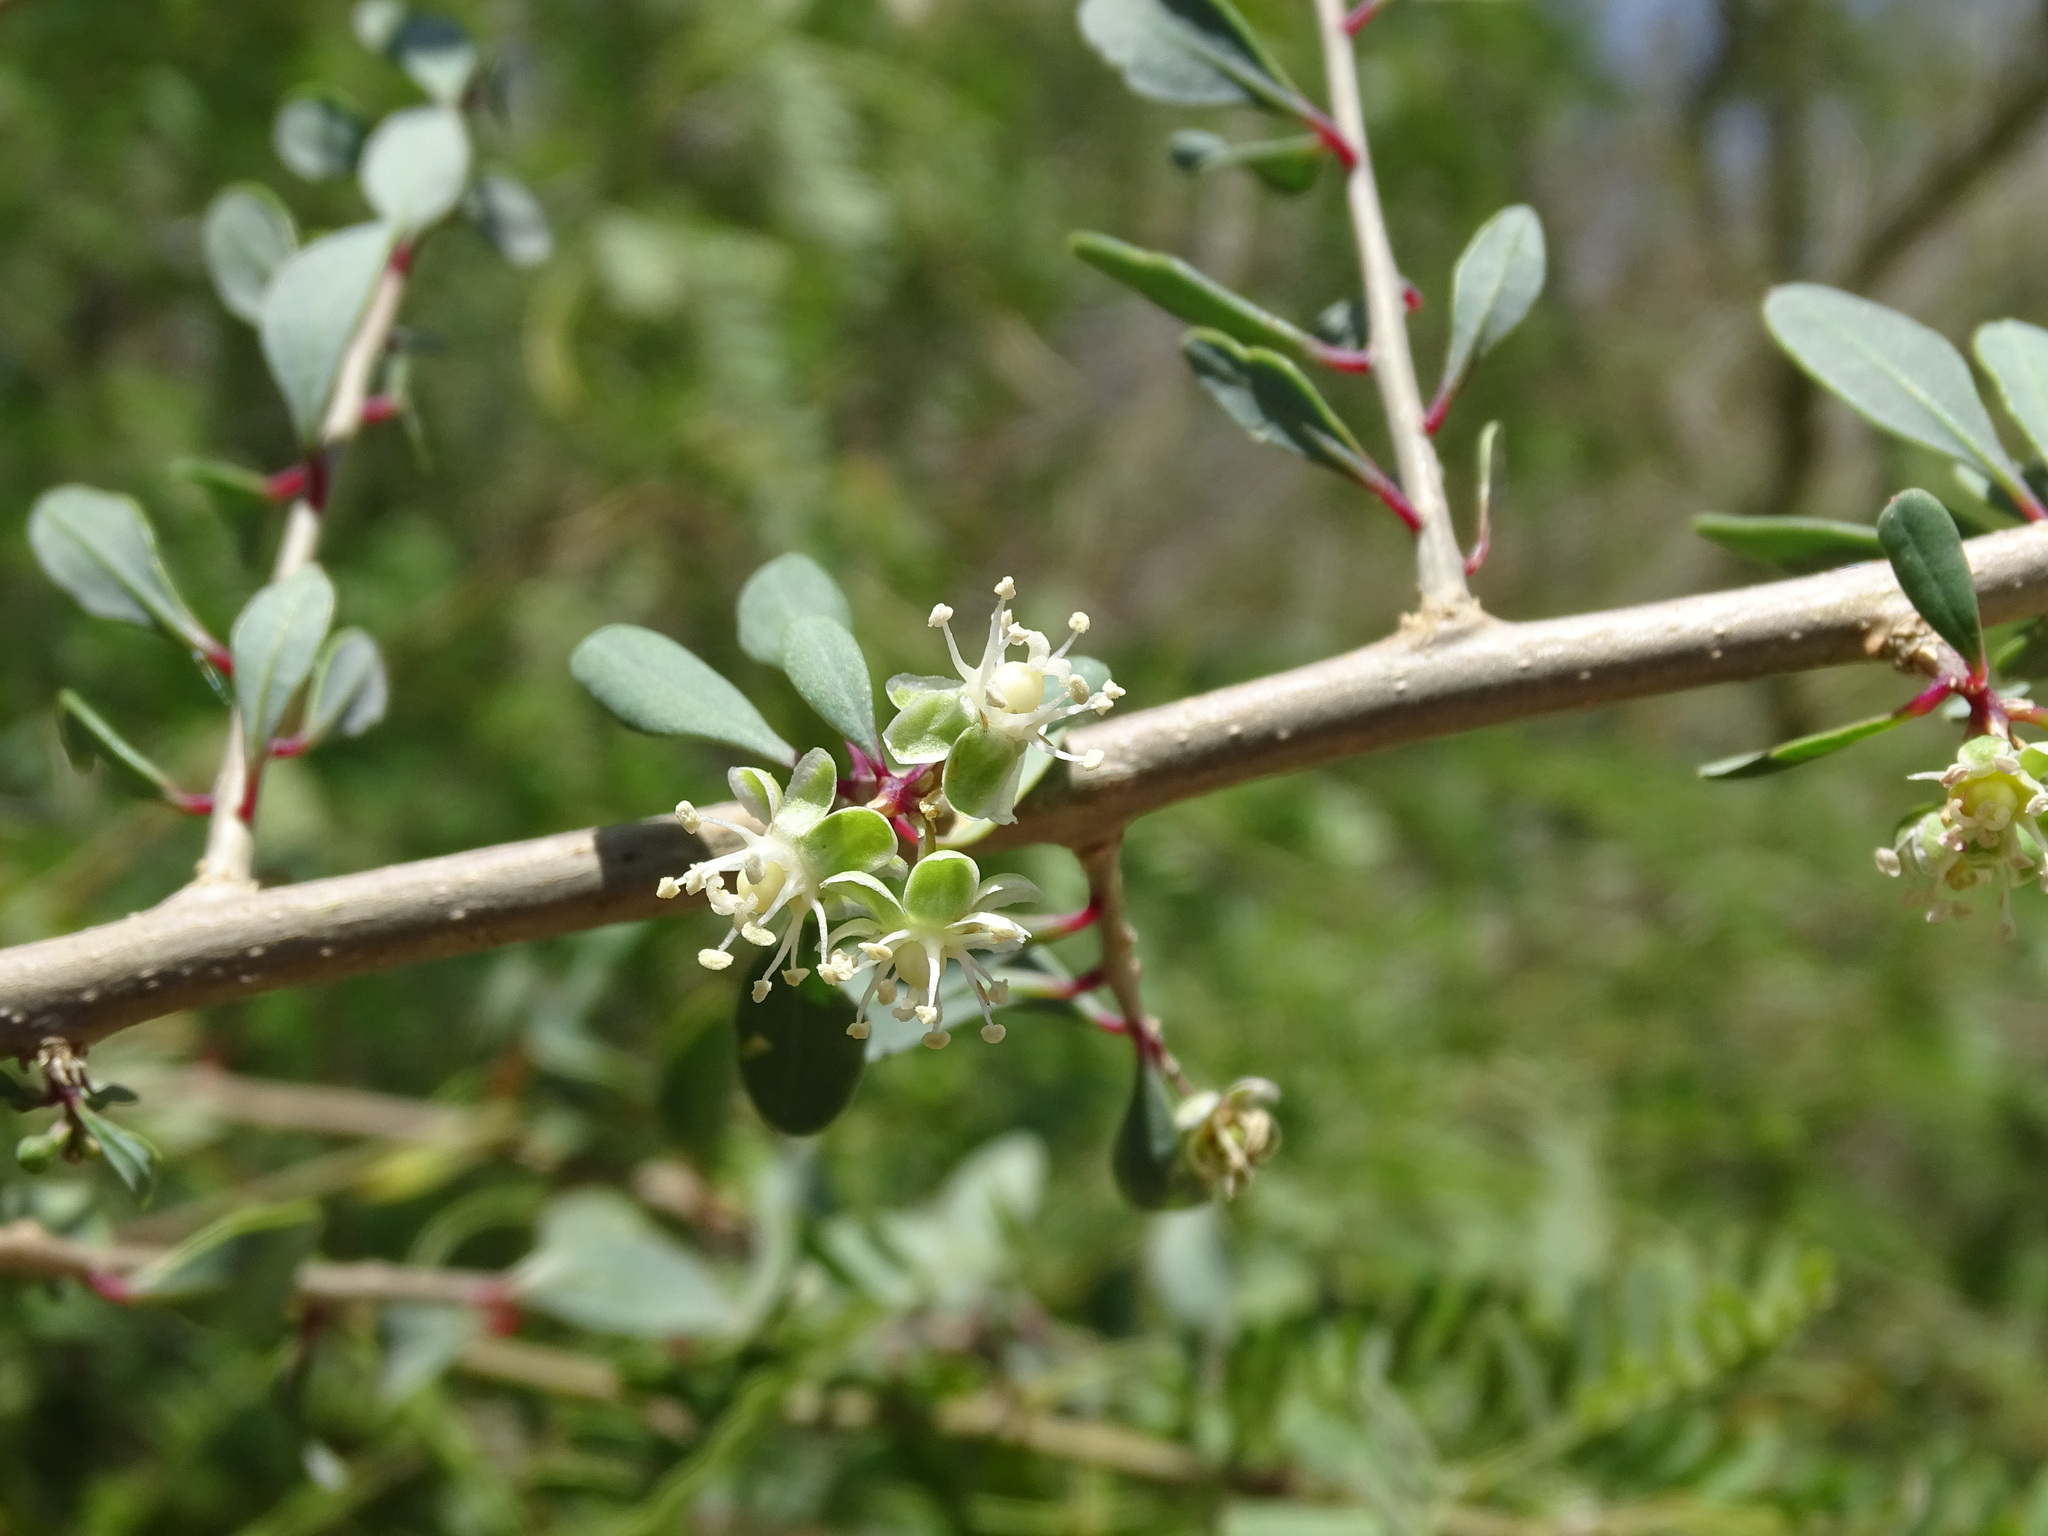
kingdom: Plantae
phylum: Tracheophyta
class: Magnoliopsida
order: Caryophyllales
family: Stegnospermataceae
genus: Stegnosperma
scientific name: Stegnosperma halimifolium
